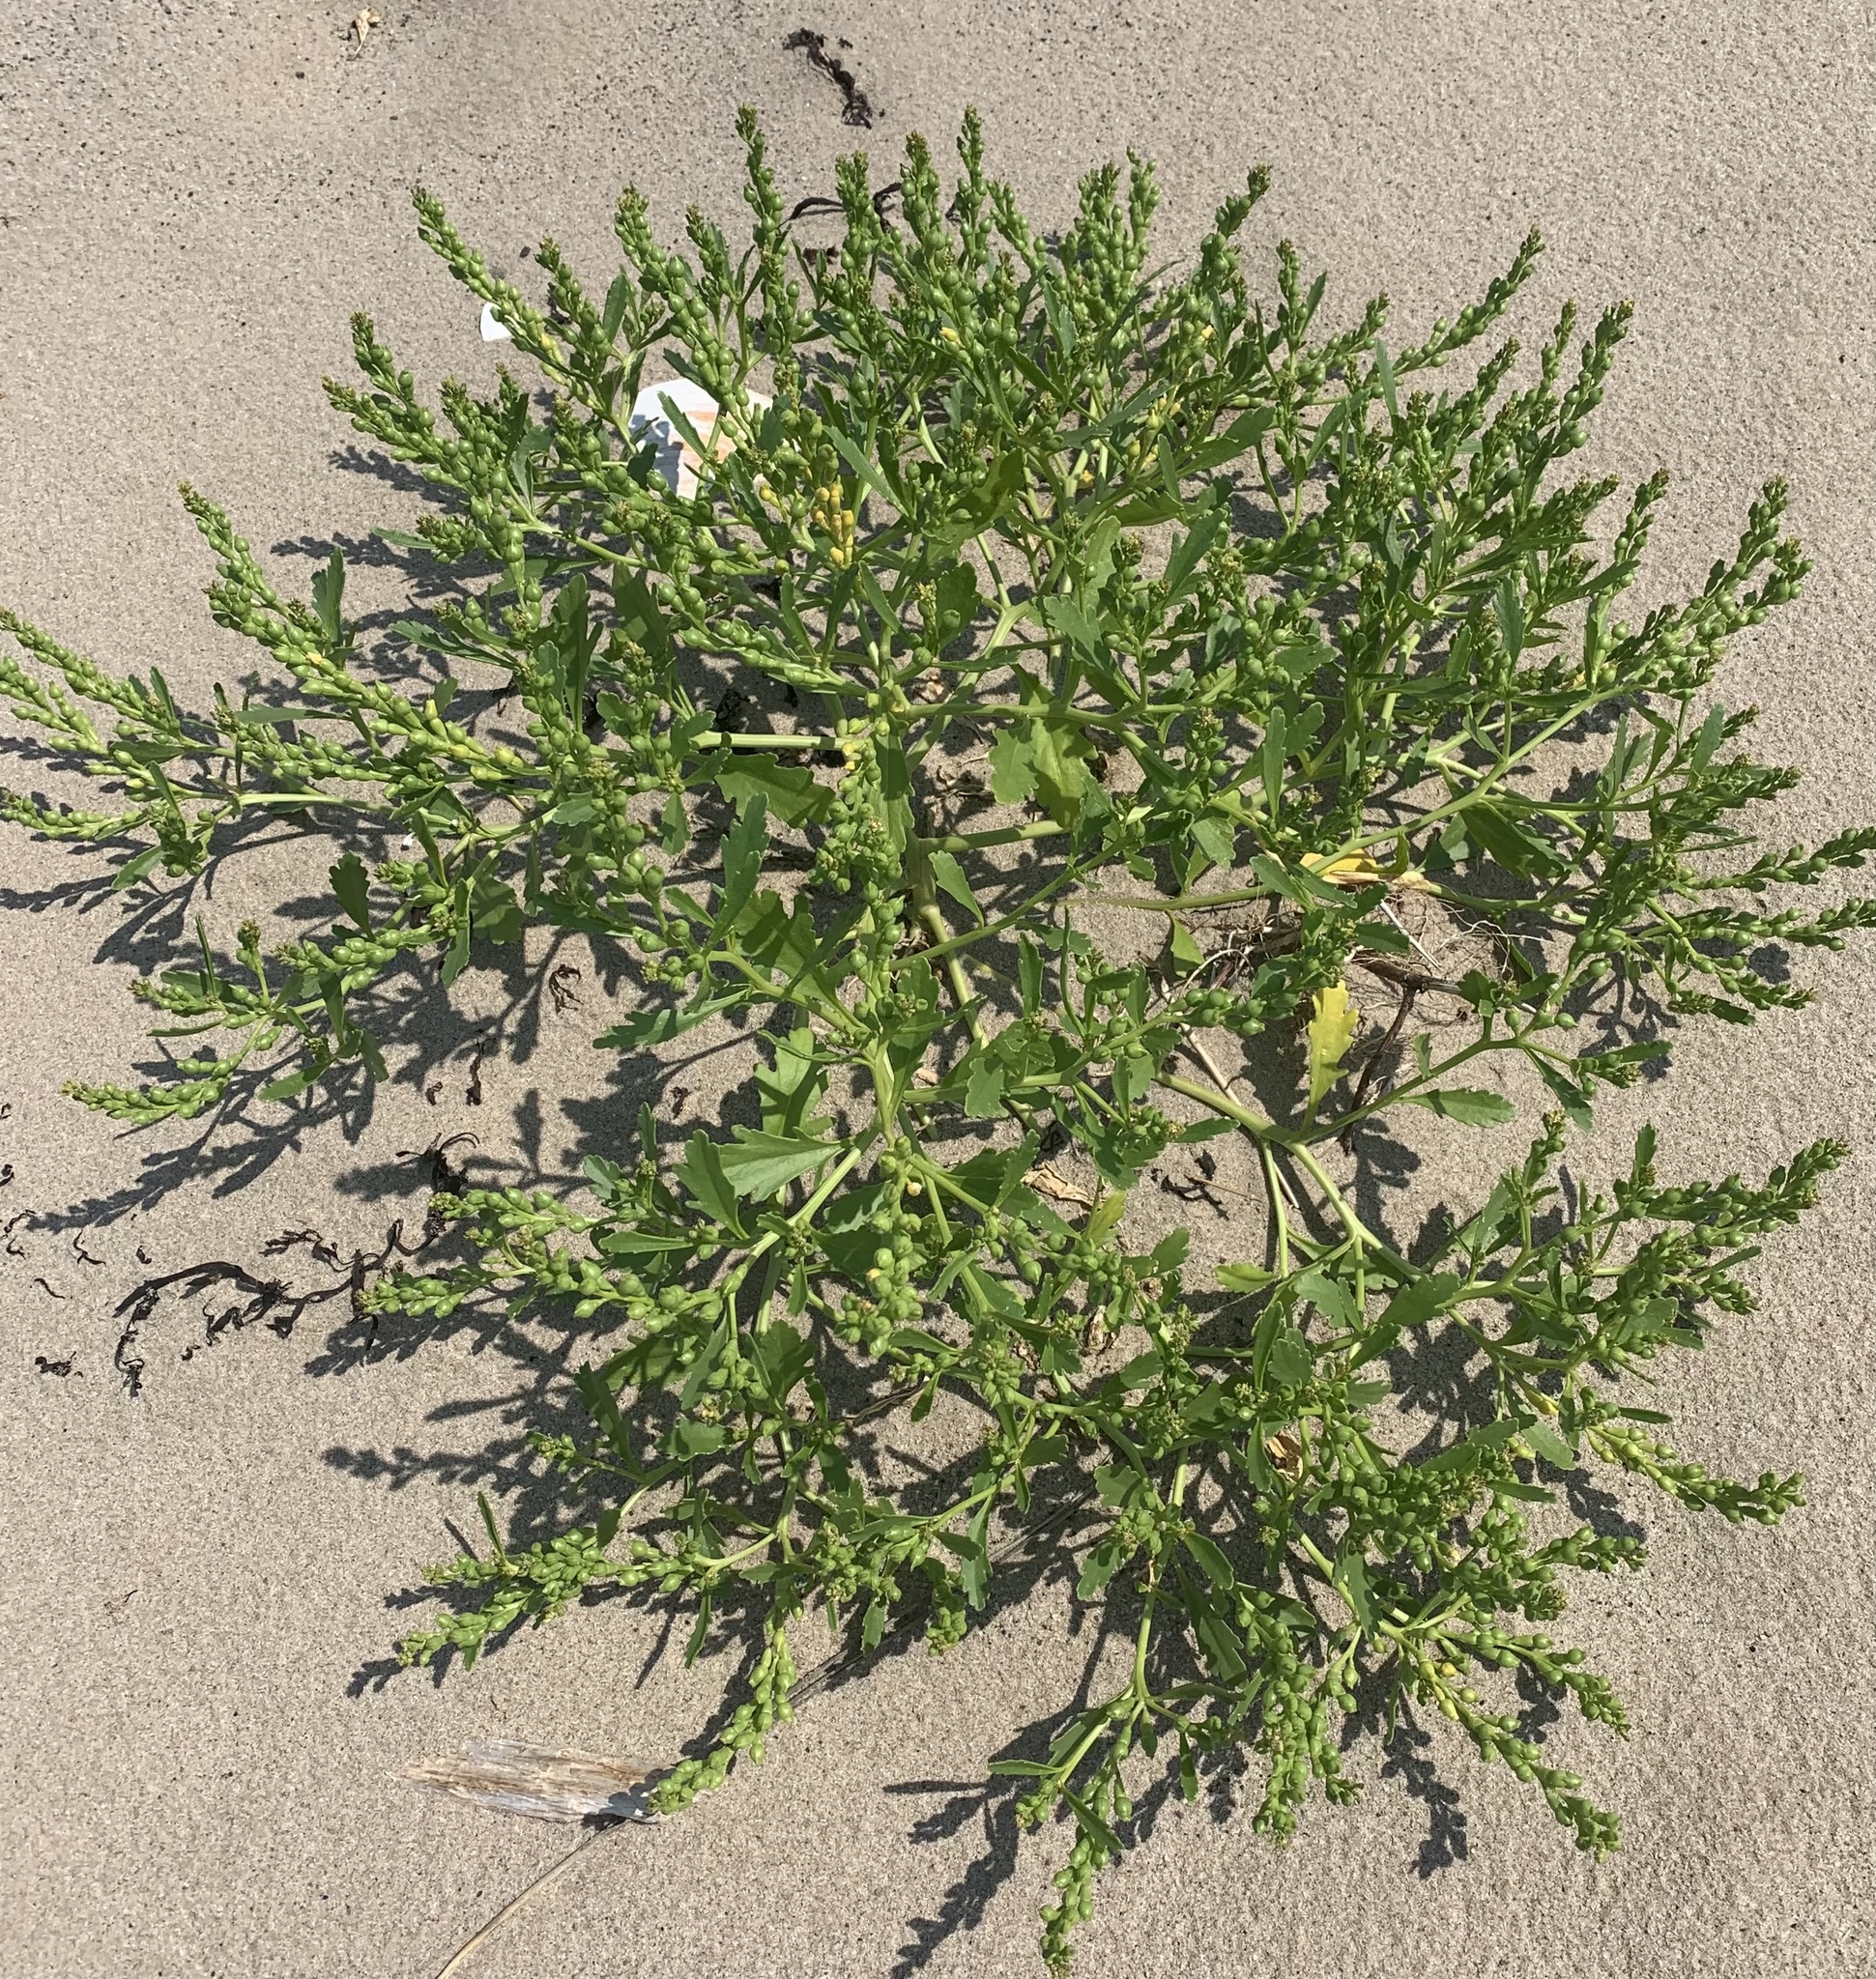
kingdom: Plantae
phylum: Tracheophyta
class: Magnoliopsida
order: Brassicales
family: Brassicaceae
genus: Cakile
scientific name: Cakile edentula
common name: American sea rocket
